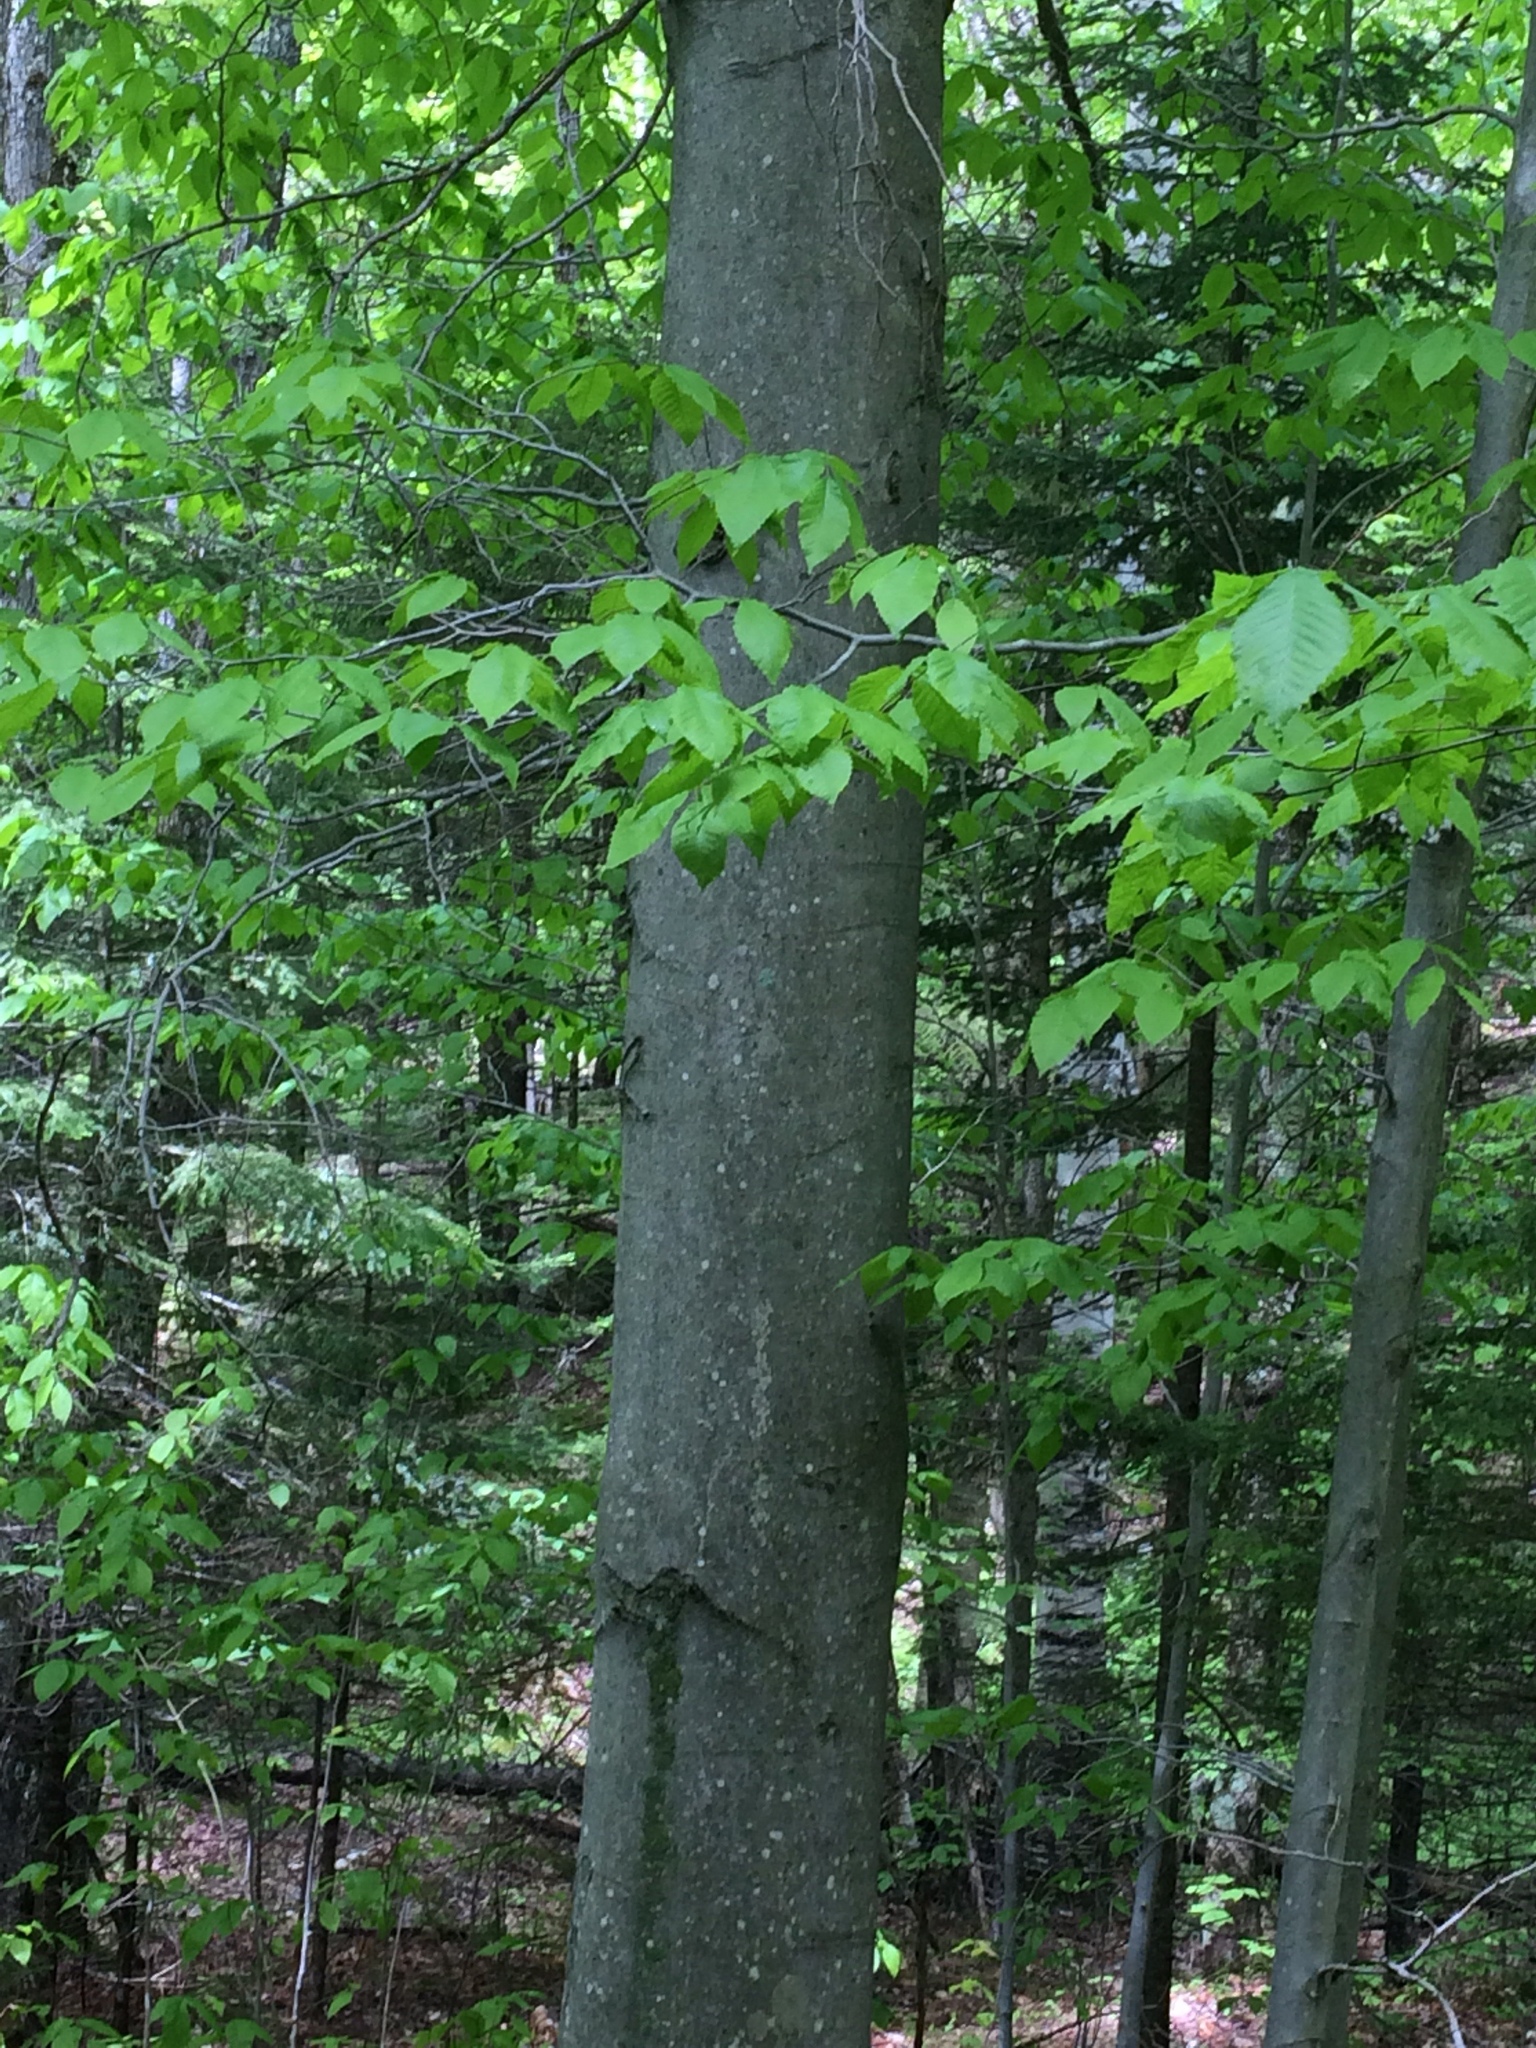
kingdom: Plantae
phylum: Tracheophyta
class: Magnoliopsida
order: Fagales
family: Fagaceae
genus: Fagus
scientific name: Fagus grandifolia
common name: American beech
